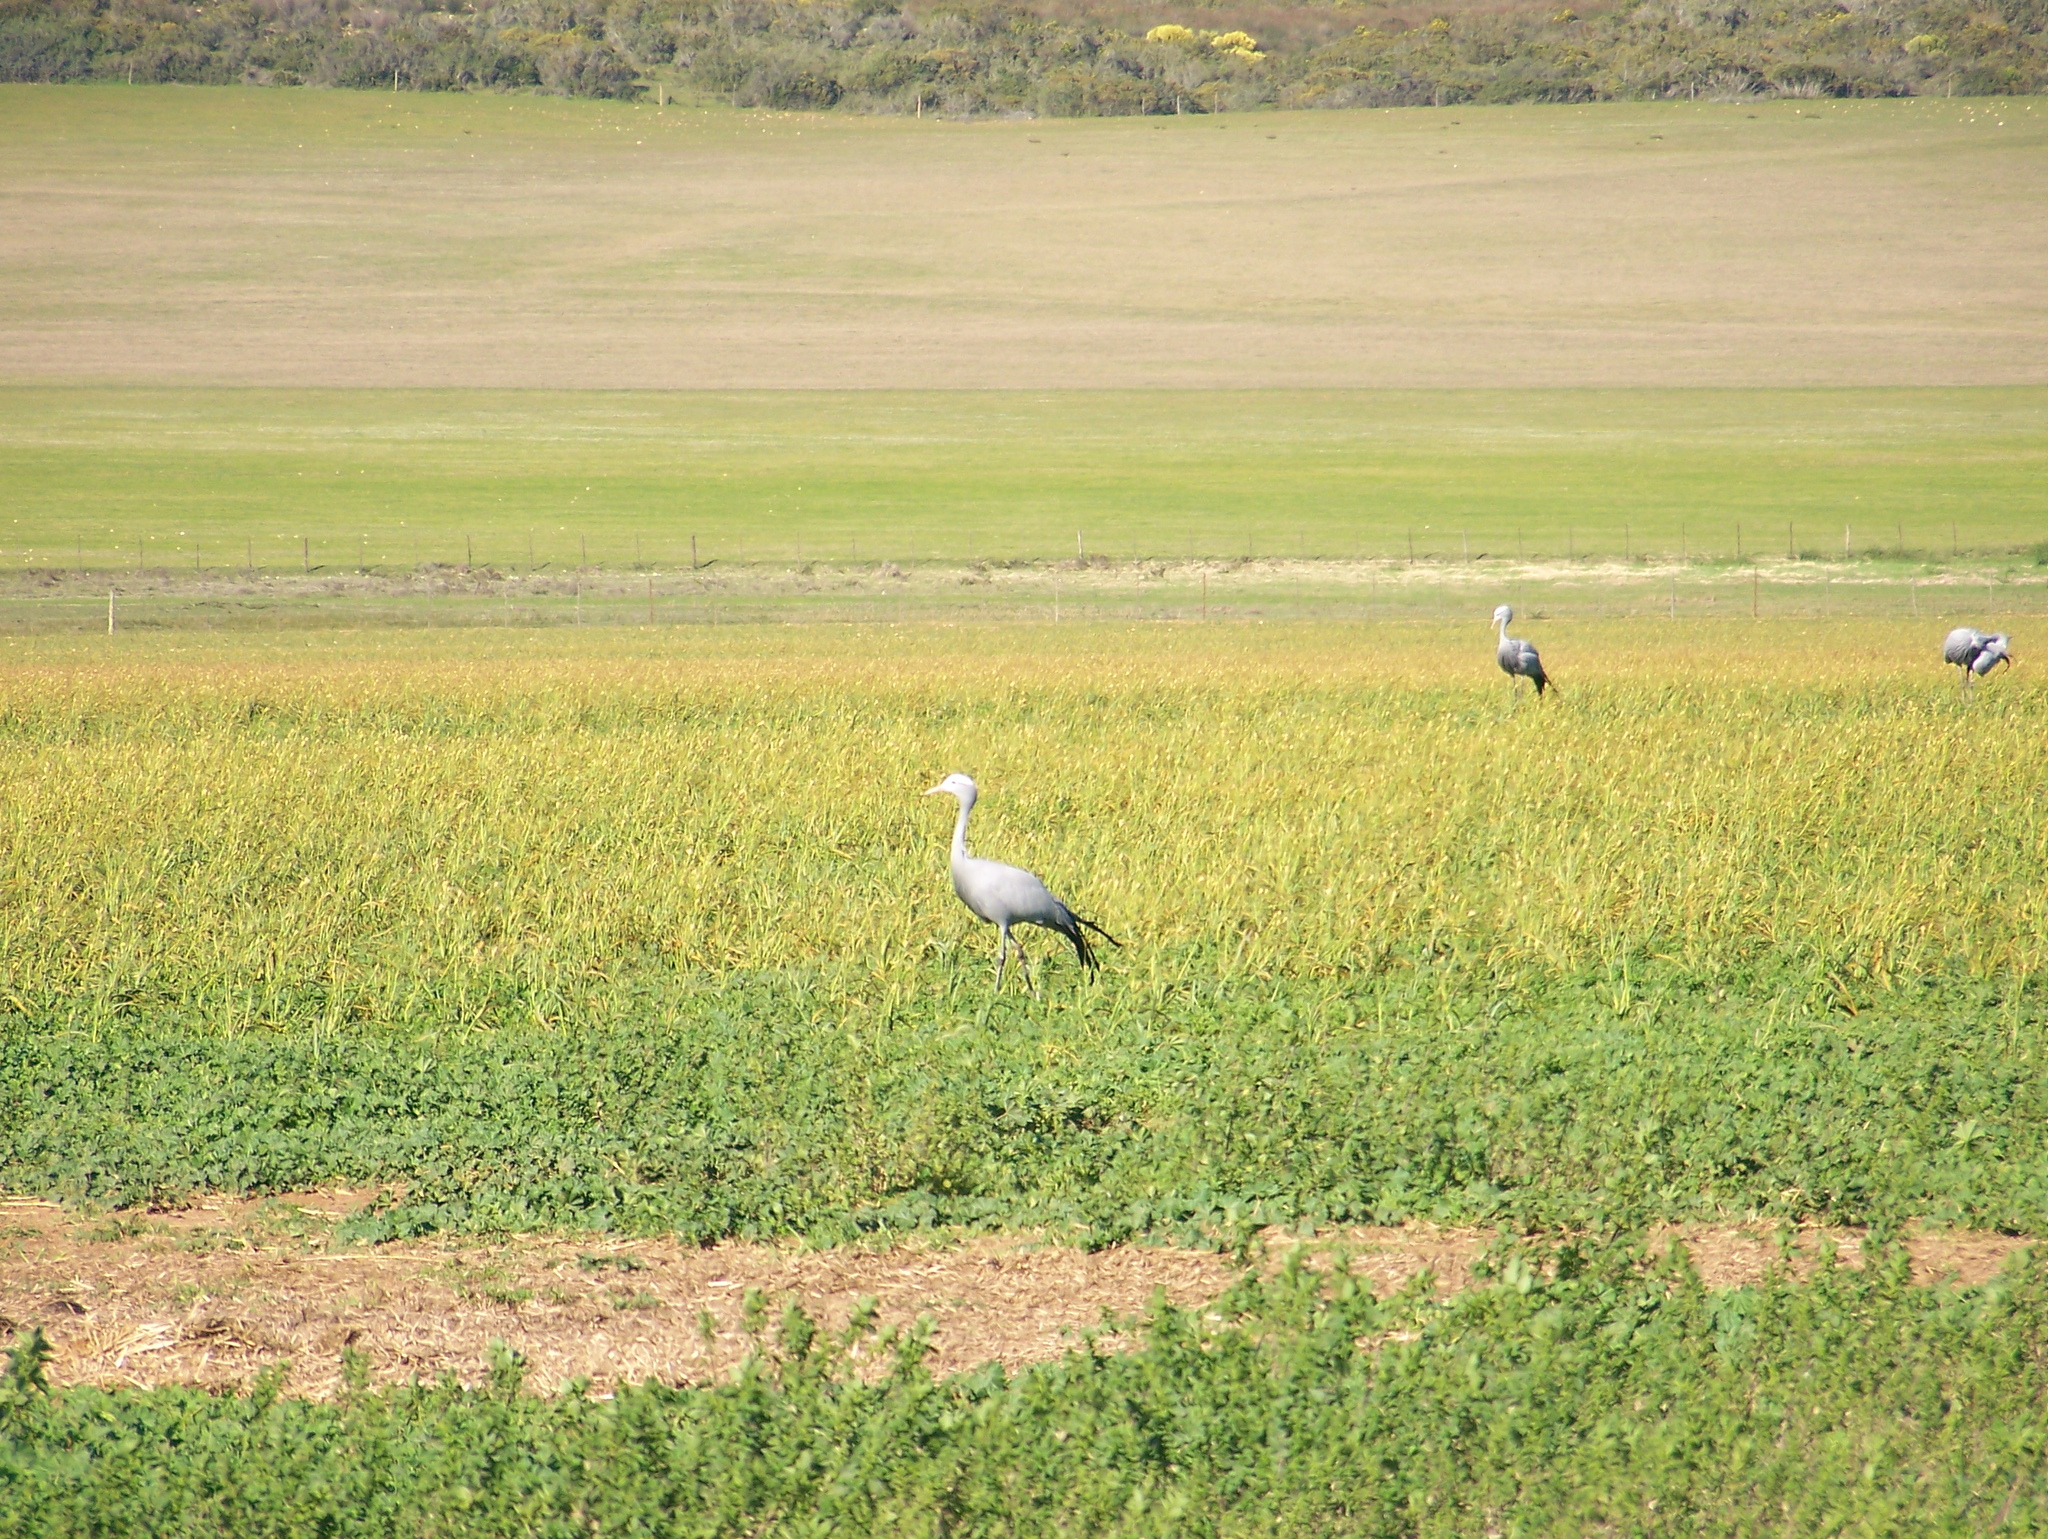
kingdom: Animalia
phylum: Chordata
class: Aves
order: Gruiformes
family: Gruidae
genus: Anthropoides
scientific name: Anthropoides paradiseus
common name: Blue crane
